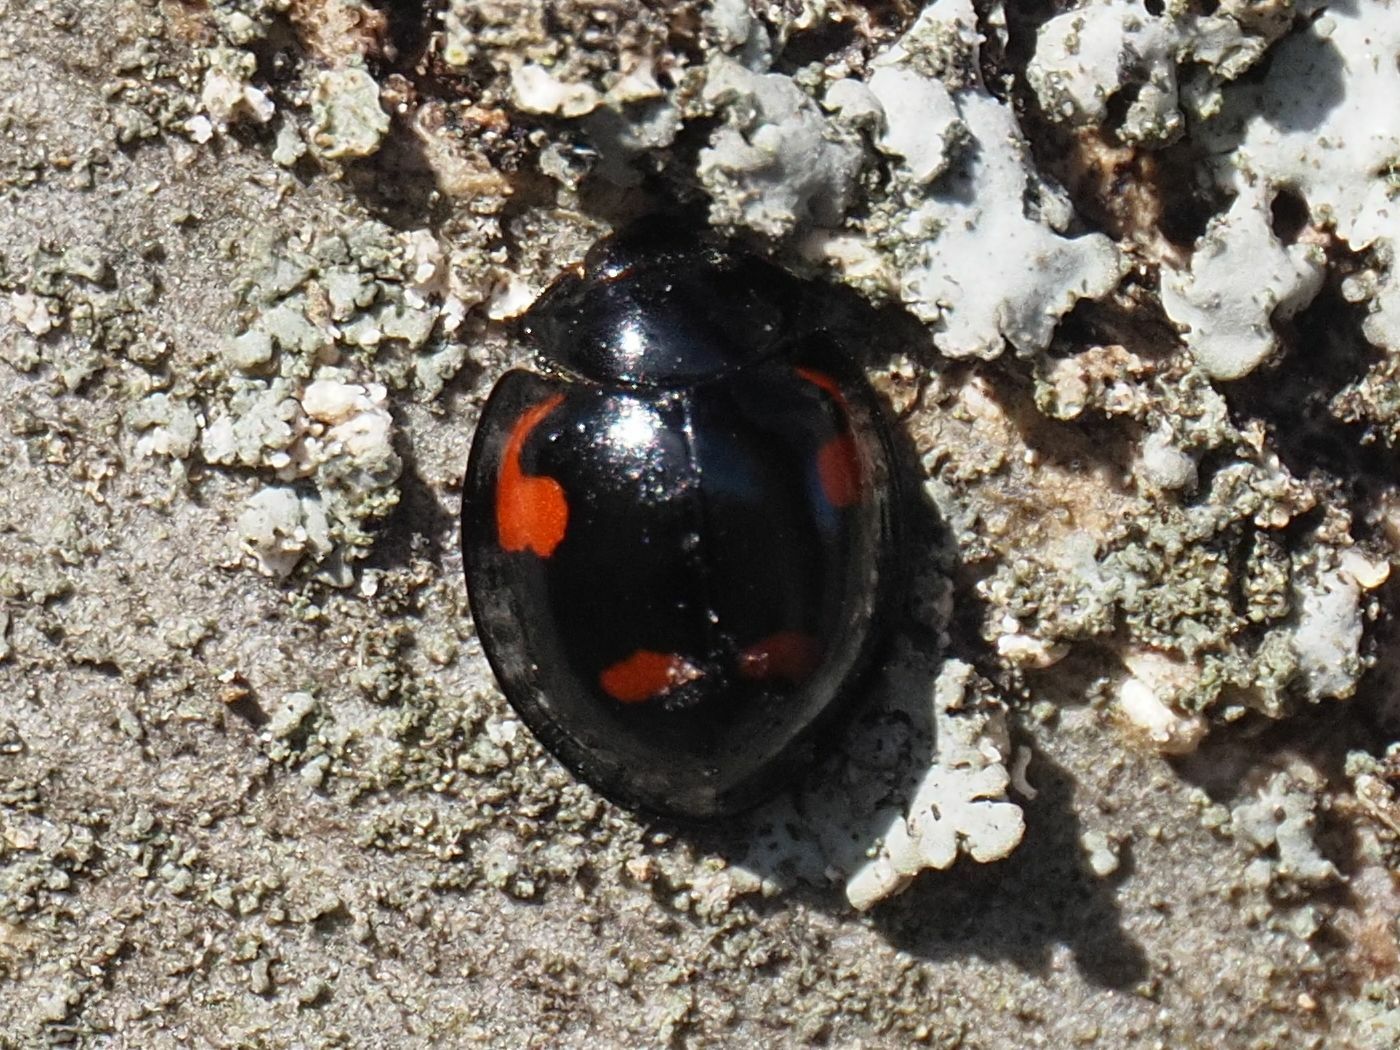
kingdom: Animalia
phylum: Arthropoda
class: Insecta
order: Coleoptera
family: Coccinellidae
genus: Brumus
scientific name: Brumus quadripustulatus
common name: Ladybird beetle
